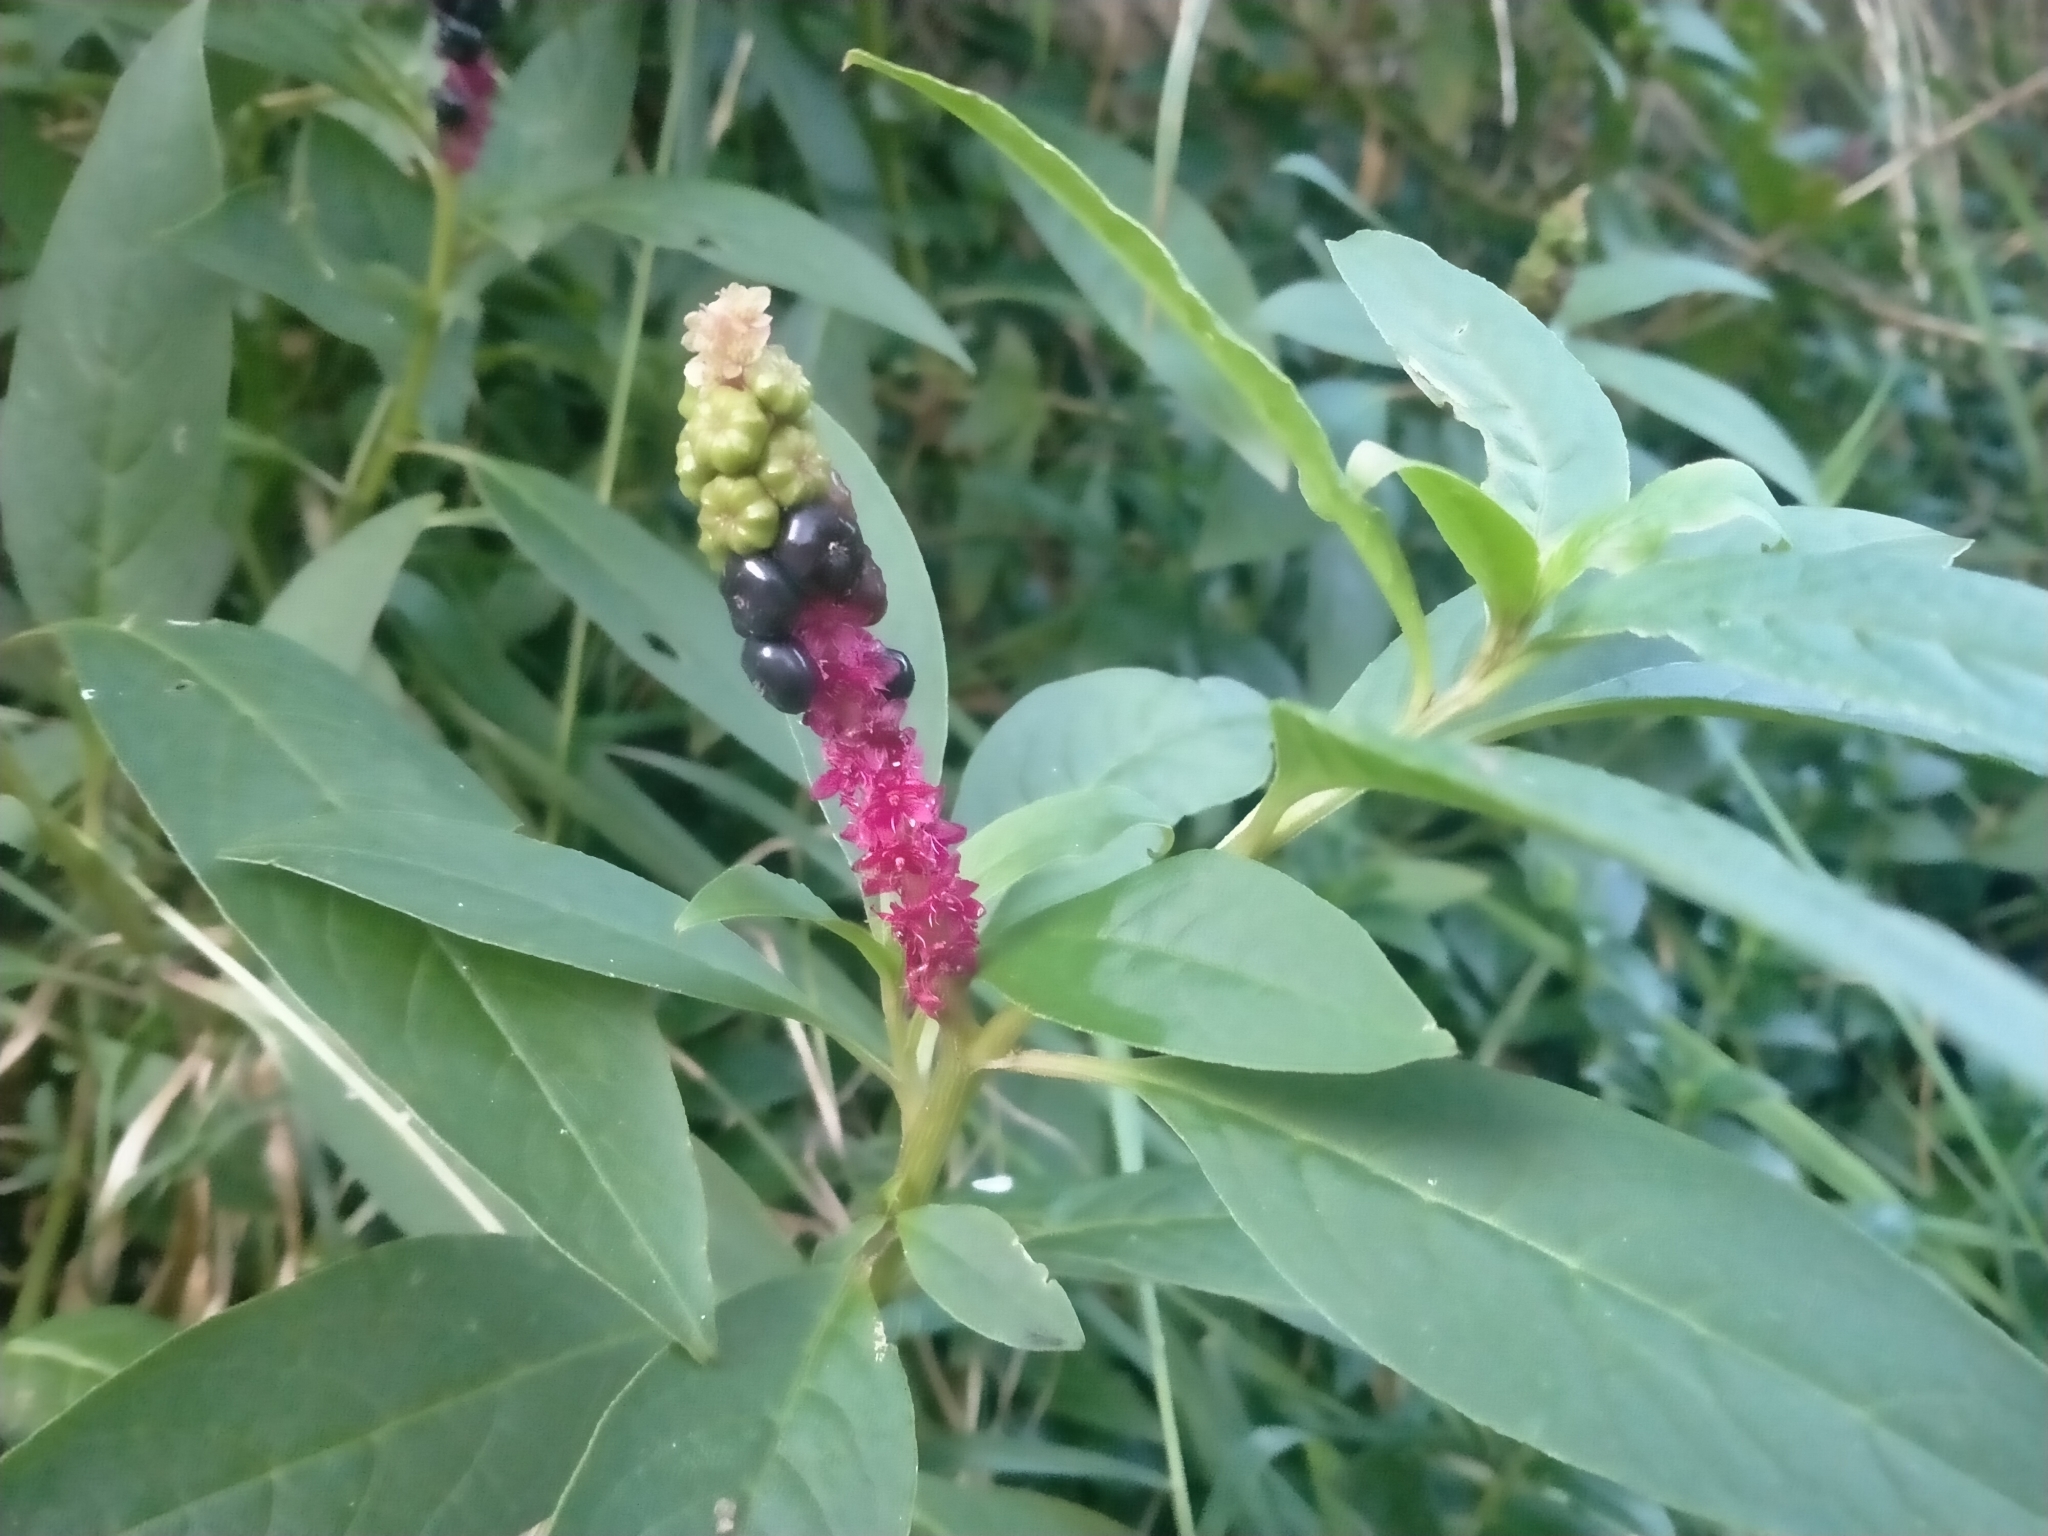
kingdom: Plantae
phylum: Tracheophyta
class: Magnoliopsida
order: Caryophyllales
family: Phytolaccaceae
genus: Phytolacca
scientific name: Phytolacca icosandra
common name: Button pokeweed
